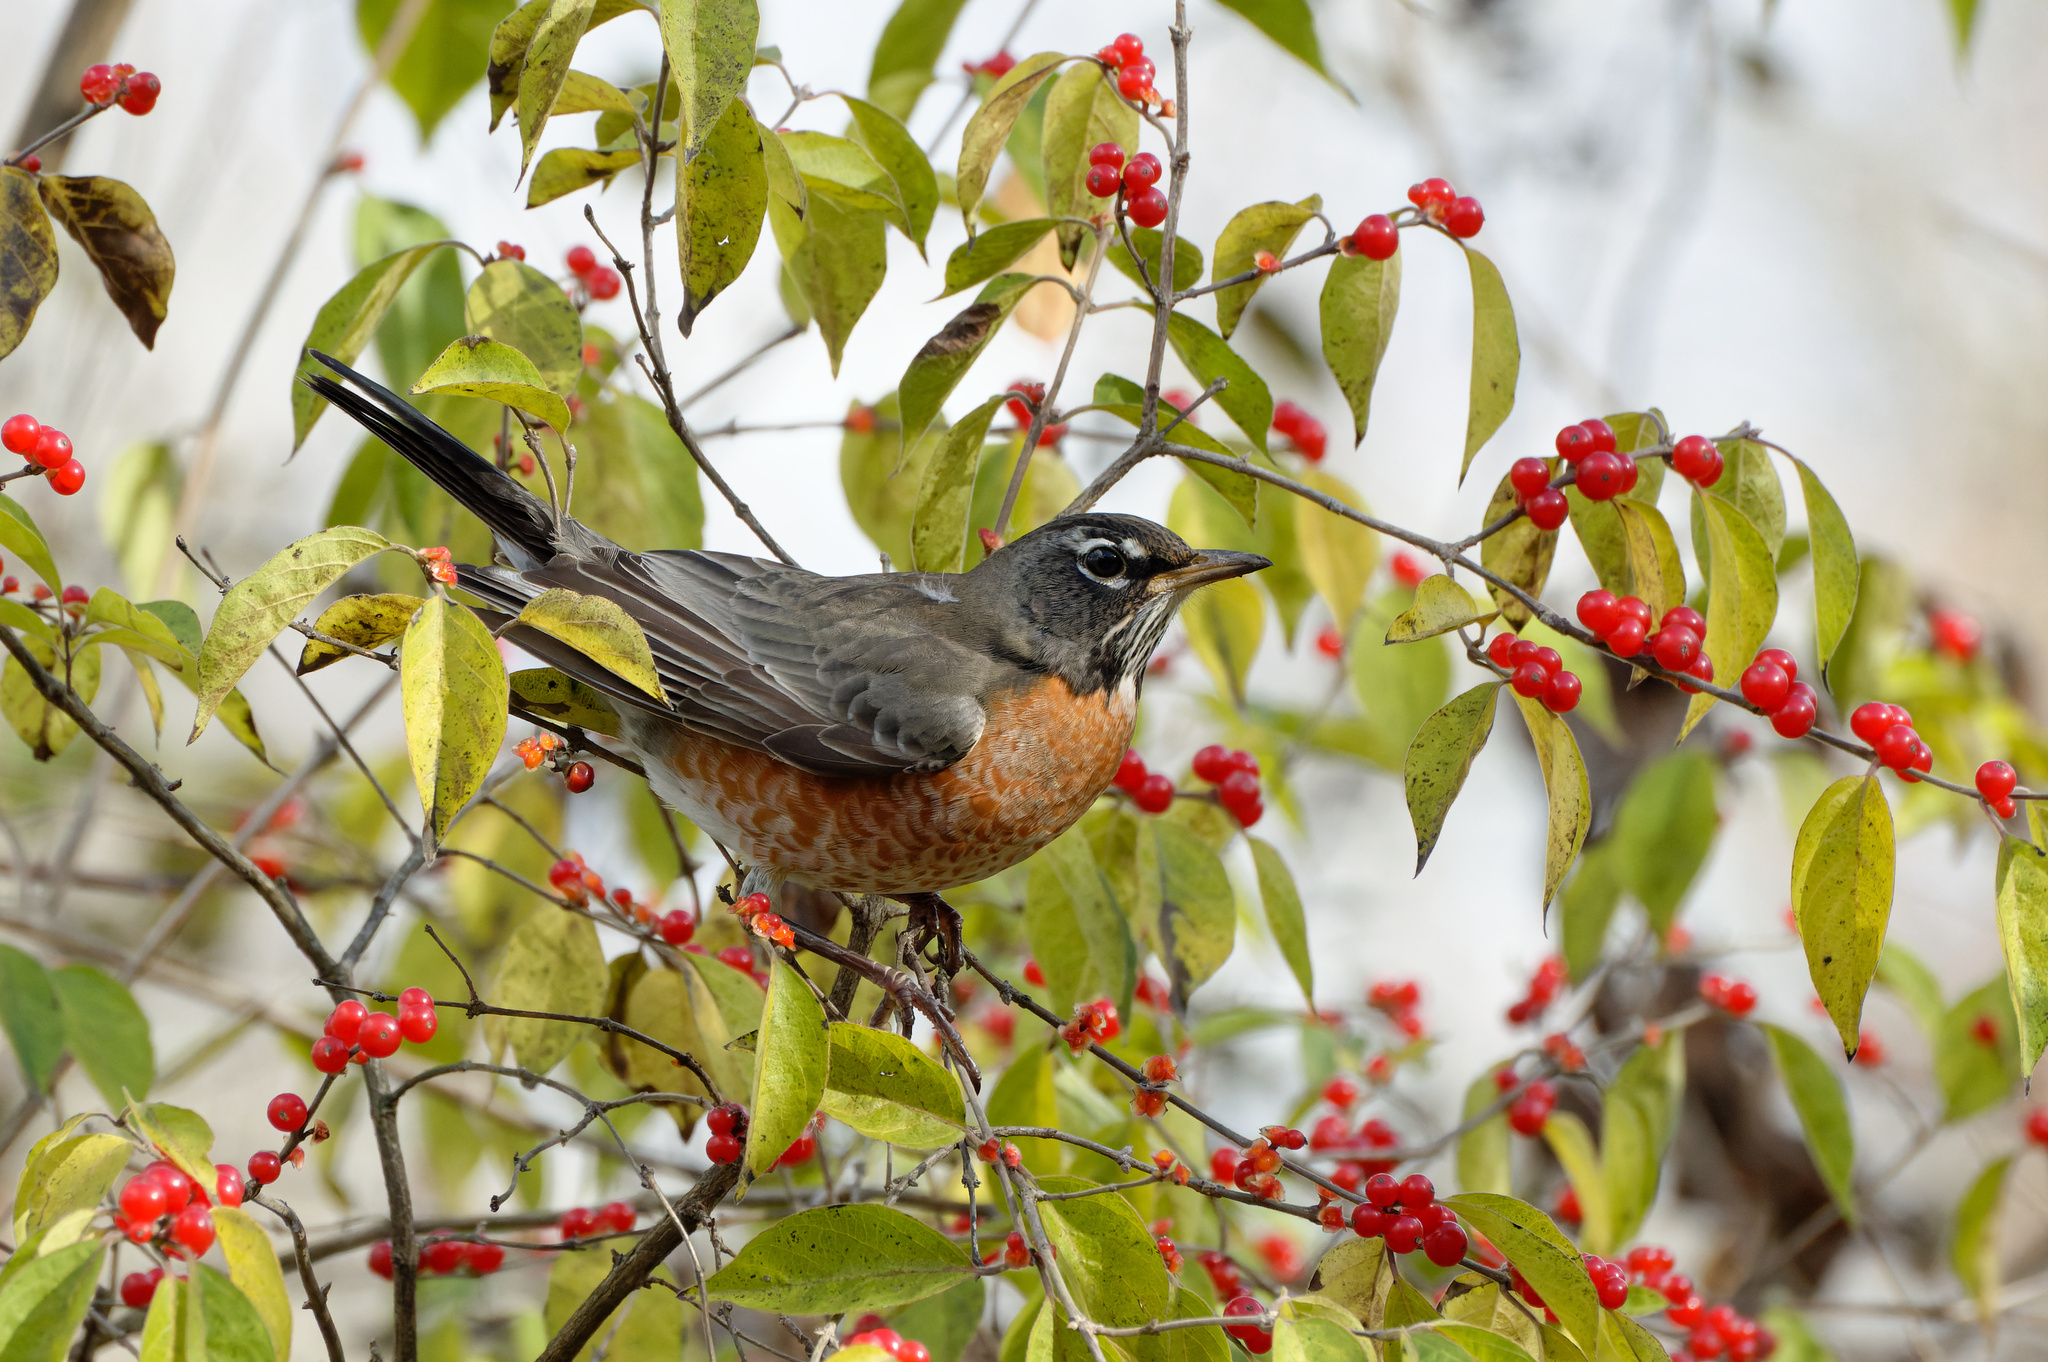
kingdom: Animalia
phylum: Chordata
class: Aves
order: Passeriformes
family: Turdidae
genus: Turdus
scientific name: Turdus migratorius
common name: American robin
